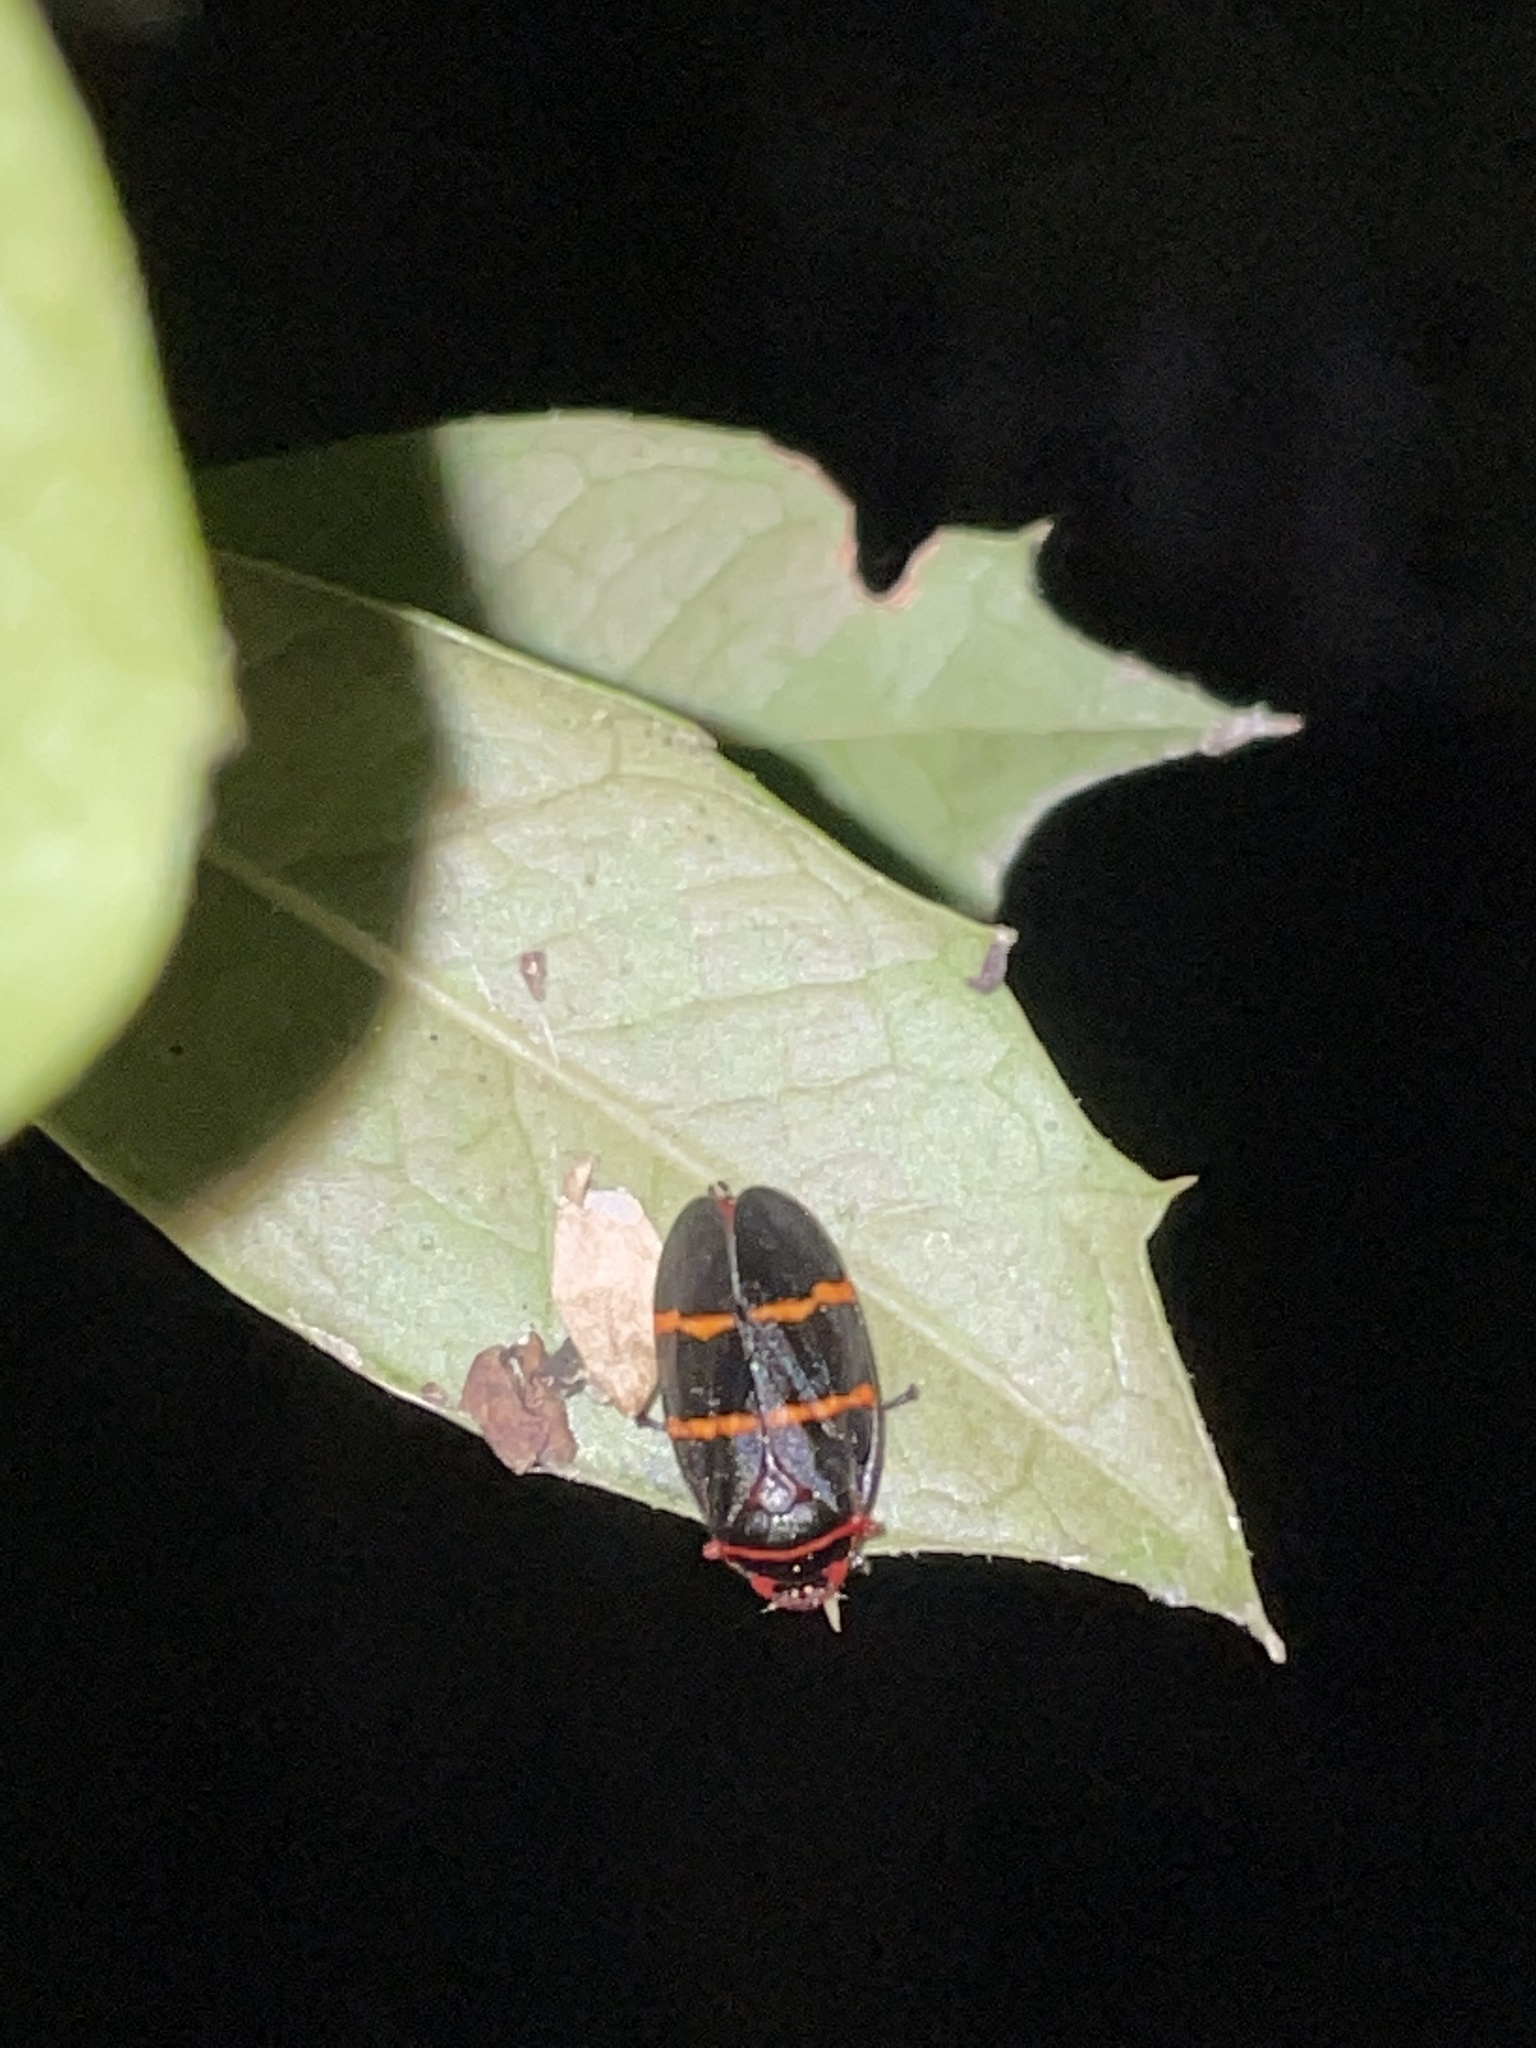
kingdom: Animalia
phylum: Arthropoda
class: Insecta
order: Hemiptera
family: Cercopidae
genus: Prosapia
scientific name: Prosapia bicincta
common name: Twolined spittlebug
